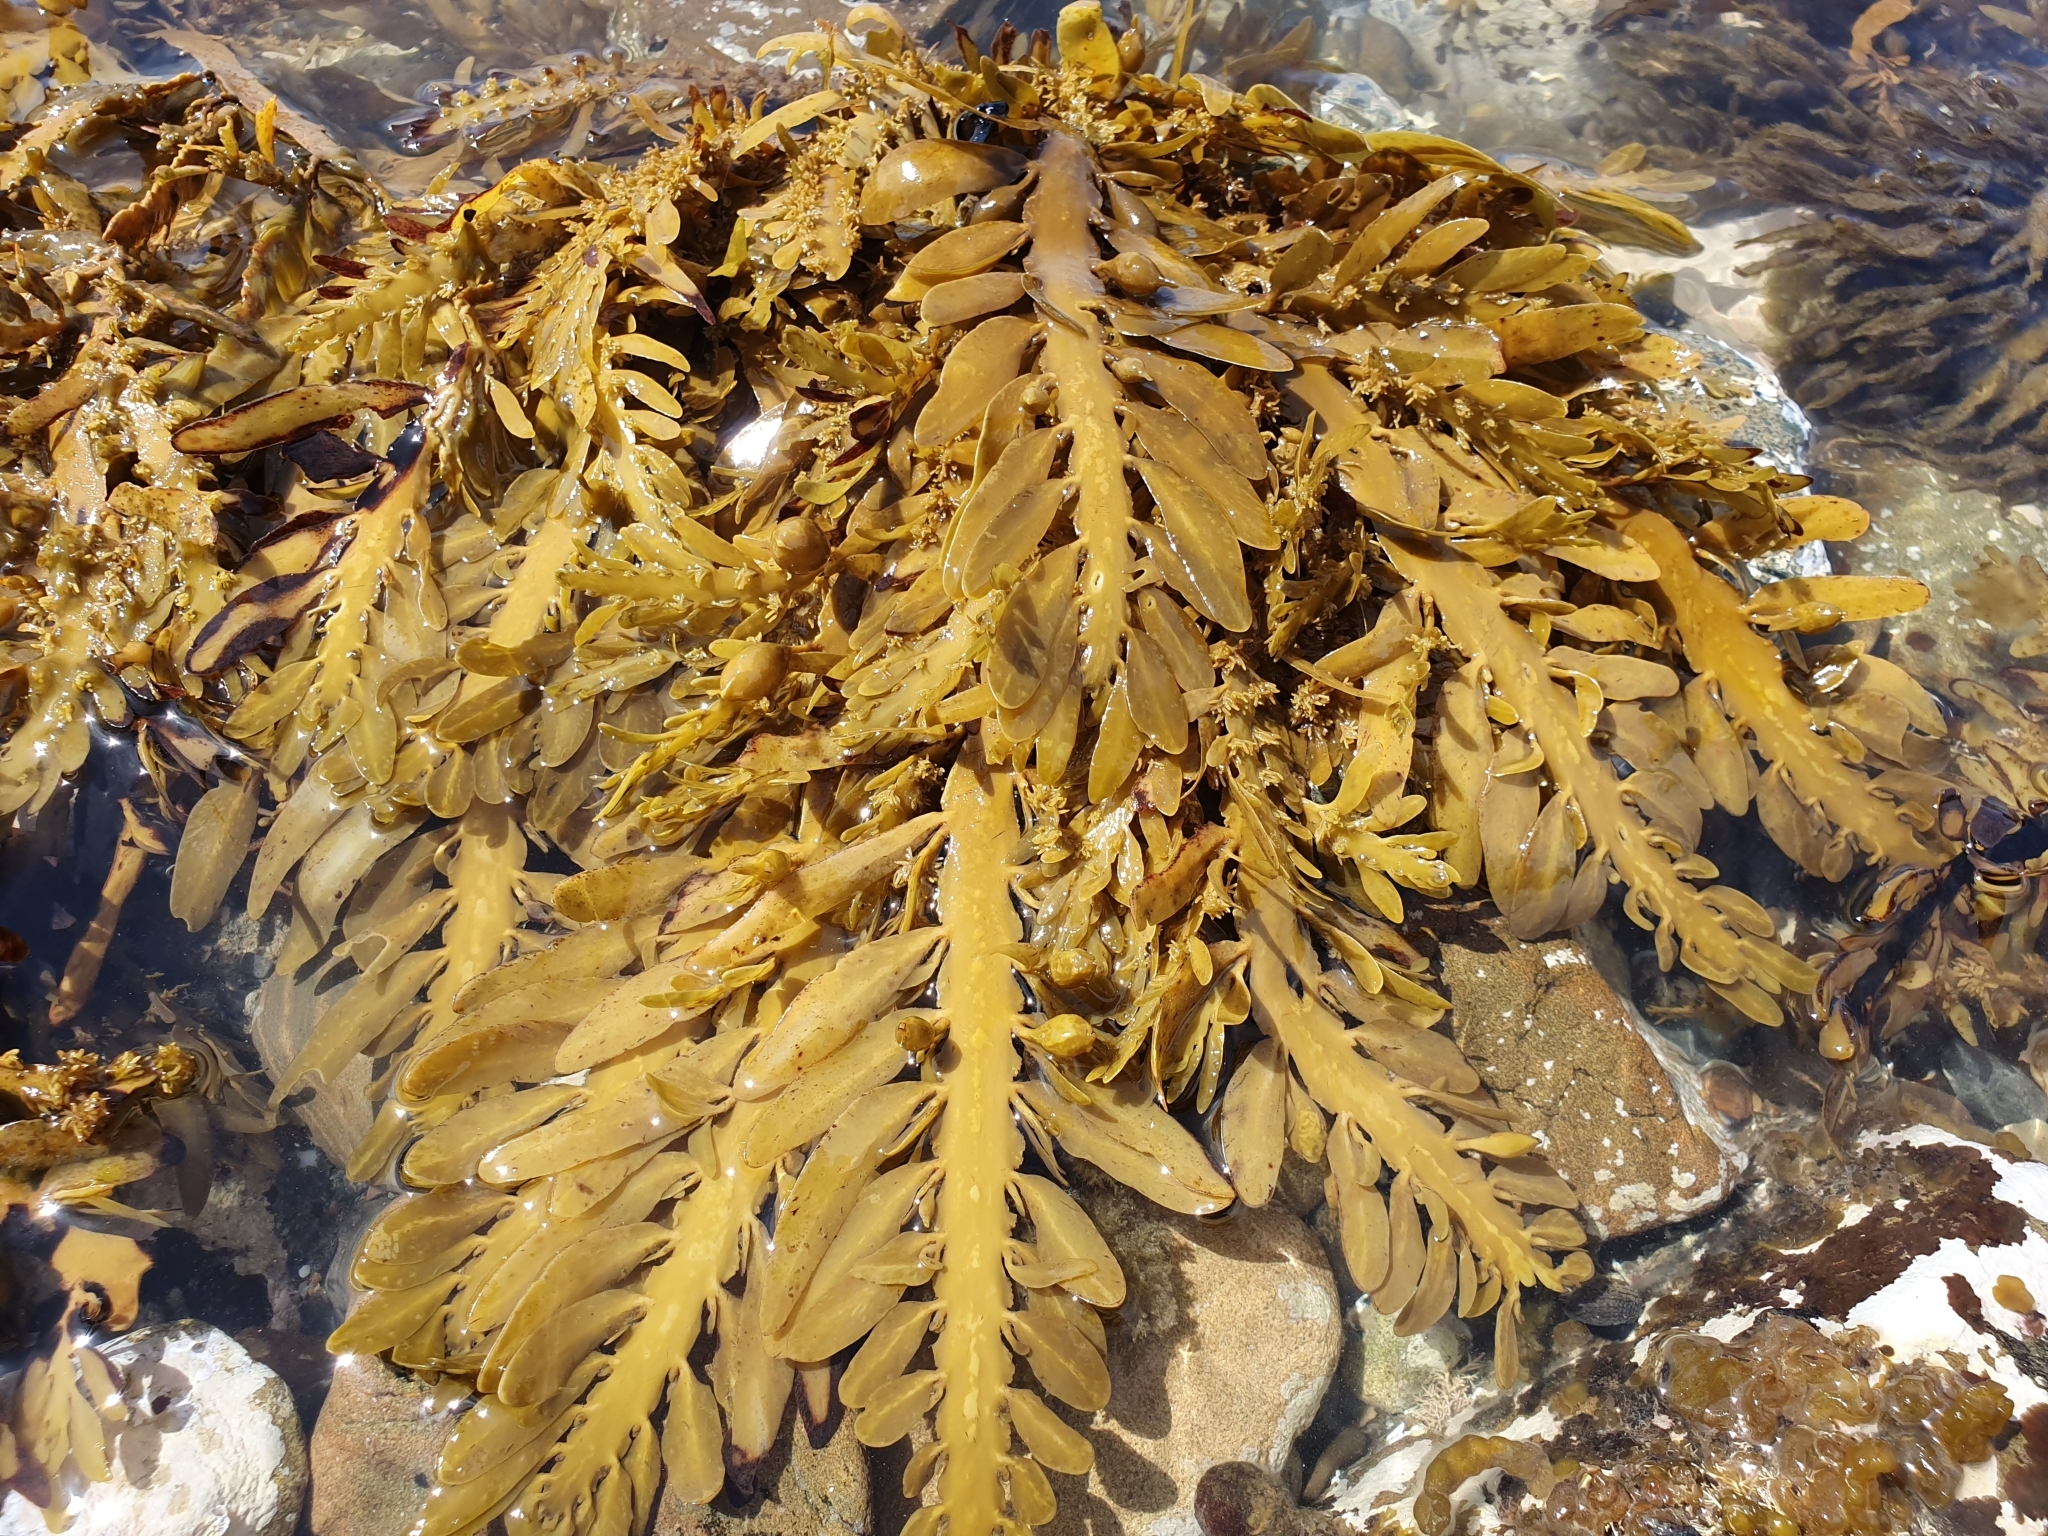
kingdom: Chromista
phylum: Ochrophyta
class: Phaeophyceae
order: Fucales
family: Sargassaceae
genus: Carpophyllum
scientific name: Carpophyllum maschalocarpum
